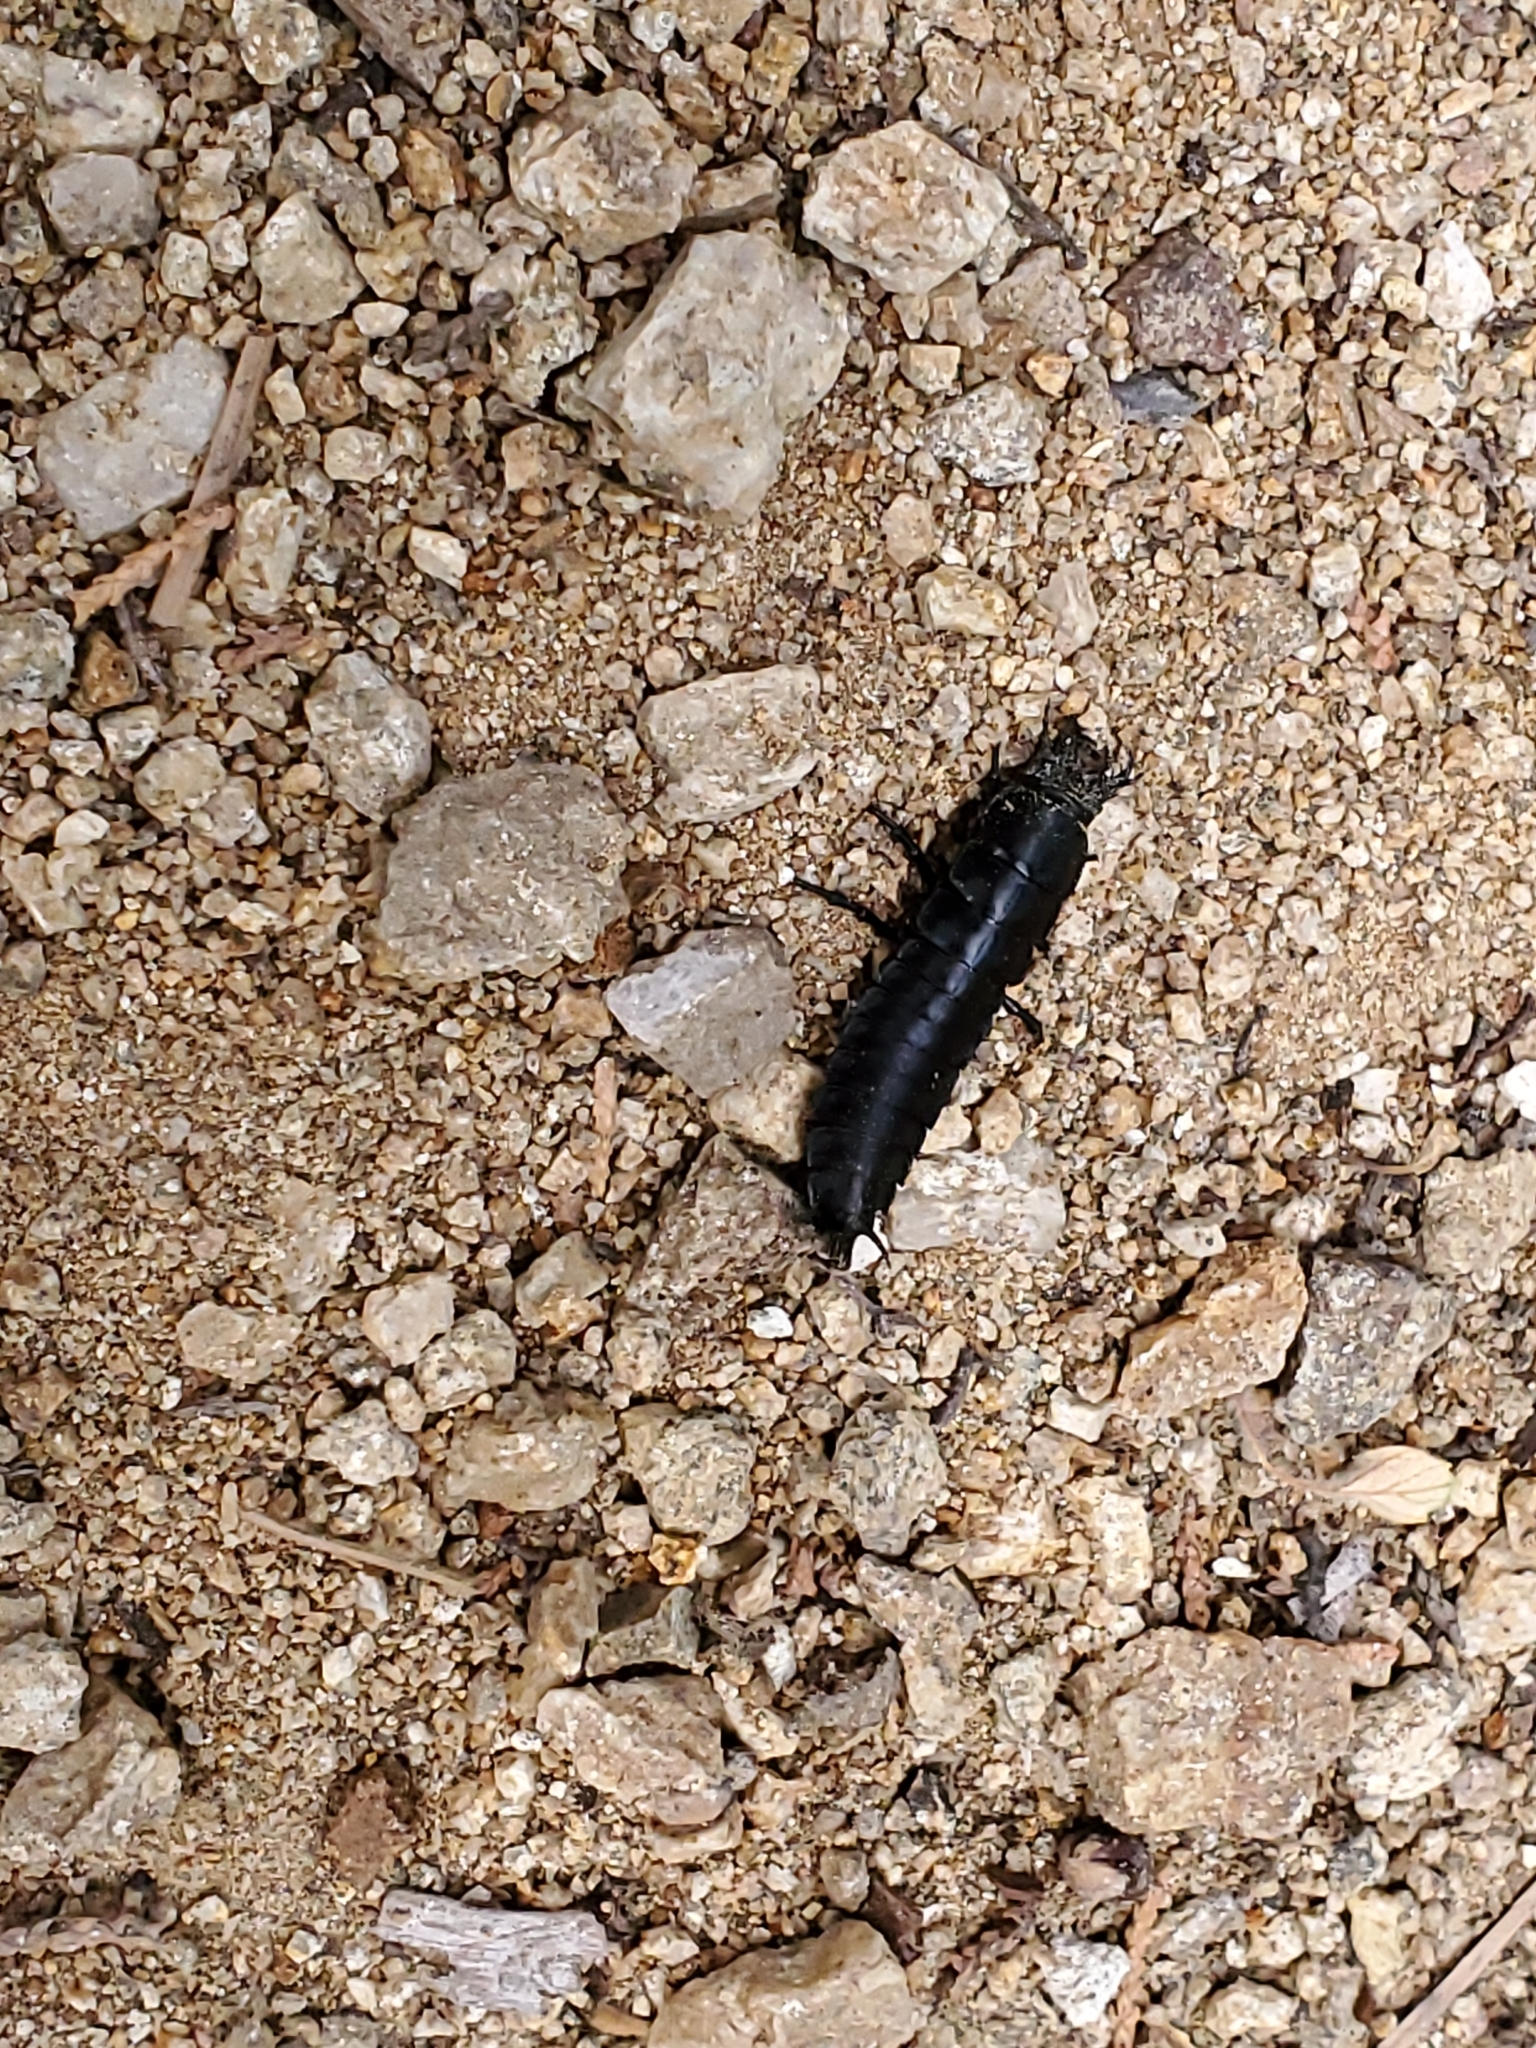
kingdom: Animalia
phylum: Arthropoda
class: Insecta
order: Coleoptera
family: Carabidae
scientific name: Carabidae
